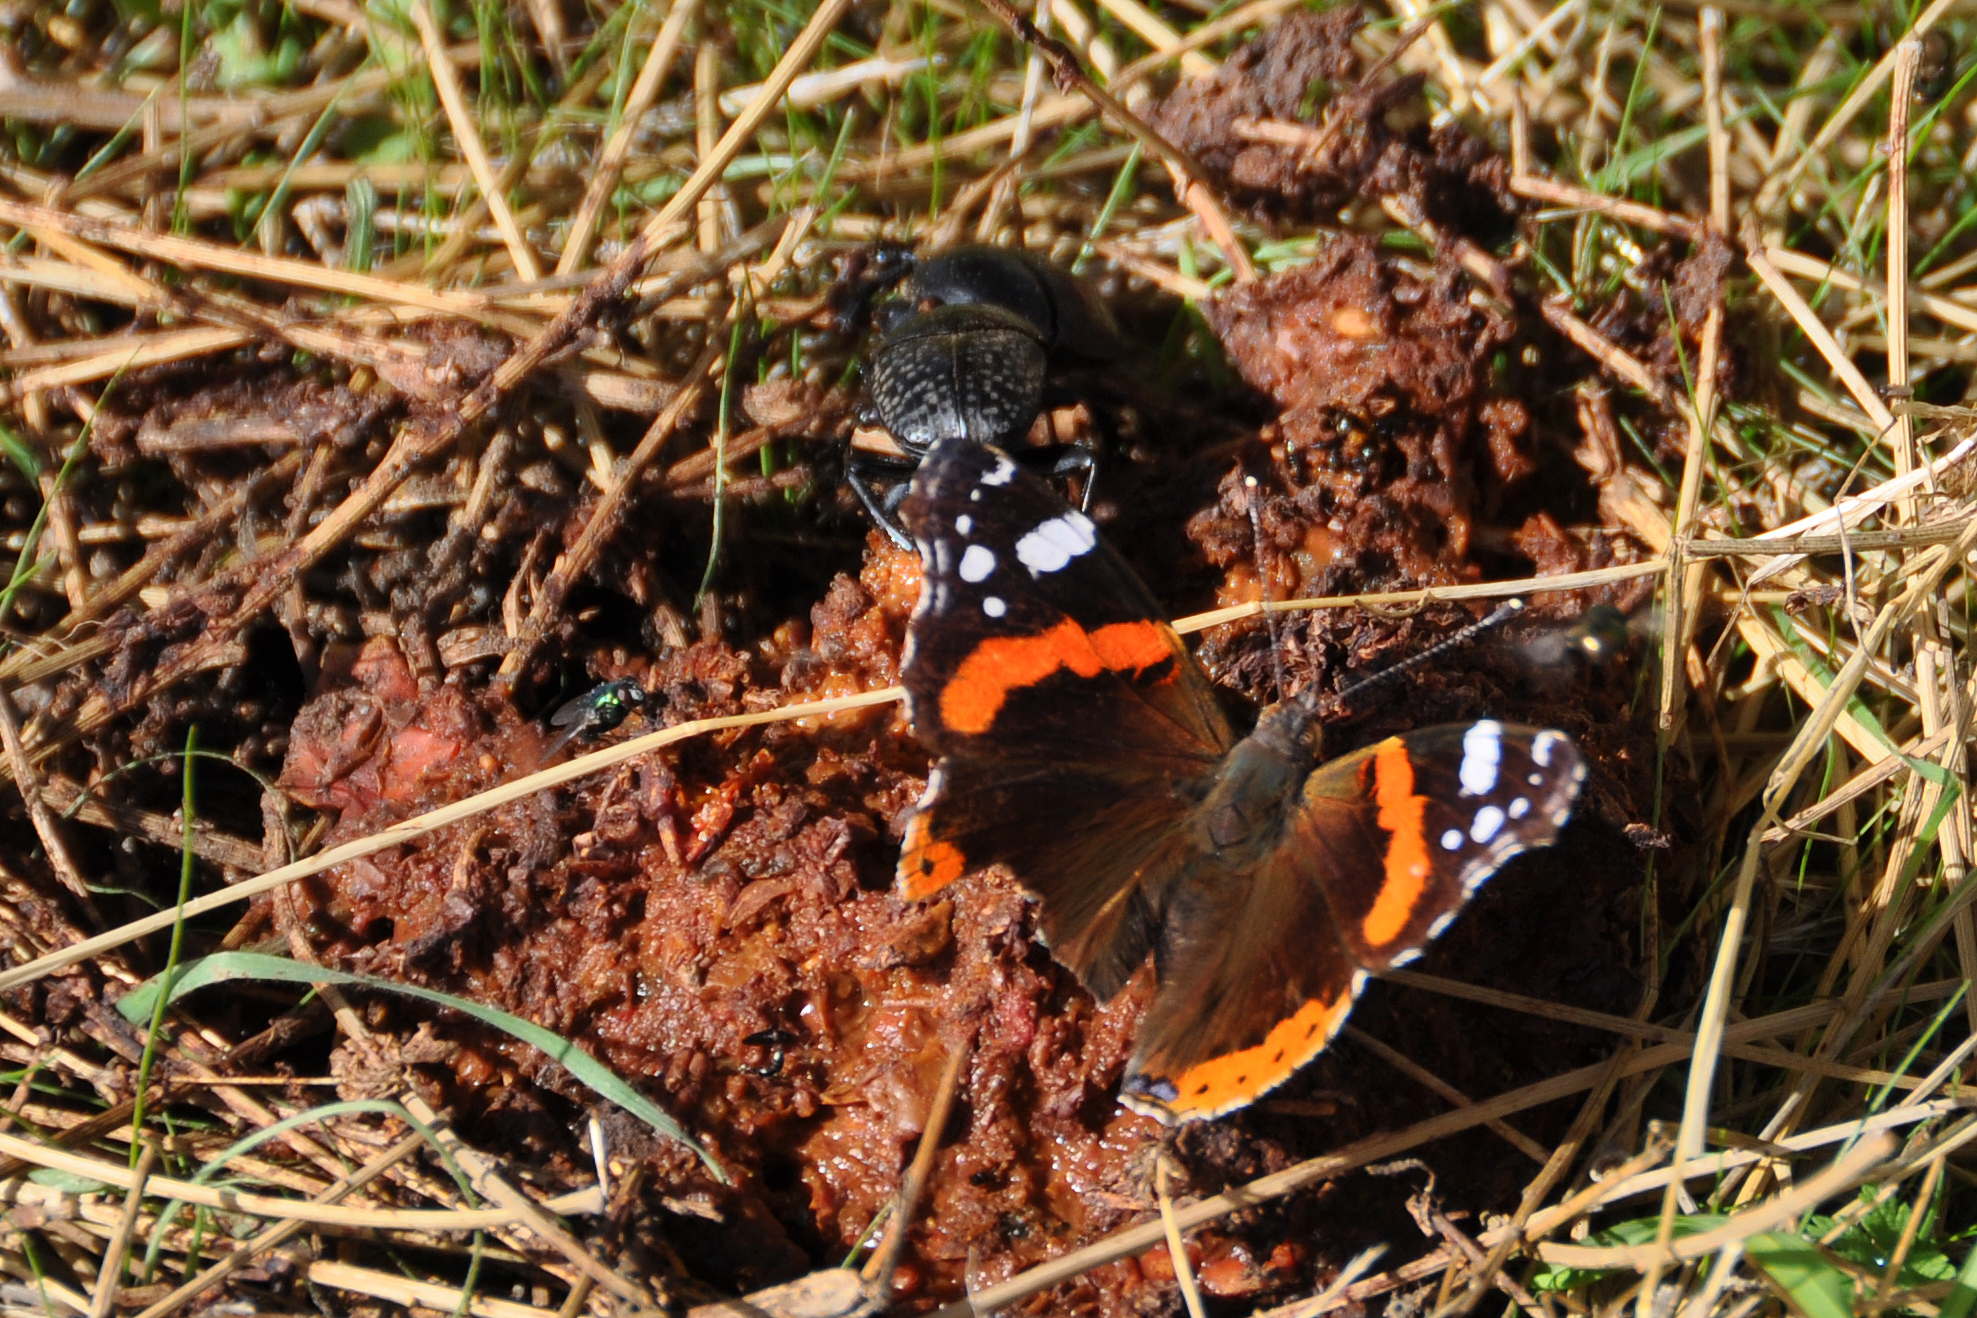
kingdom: Animalia
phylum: Arthropoda
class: Insecta
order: Lepidoptera
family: Nymphalidae
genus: Vanessa
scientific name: Vanessa atalanta
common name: Red admiral
